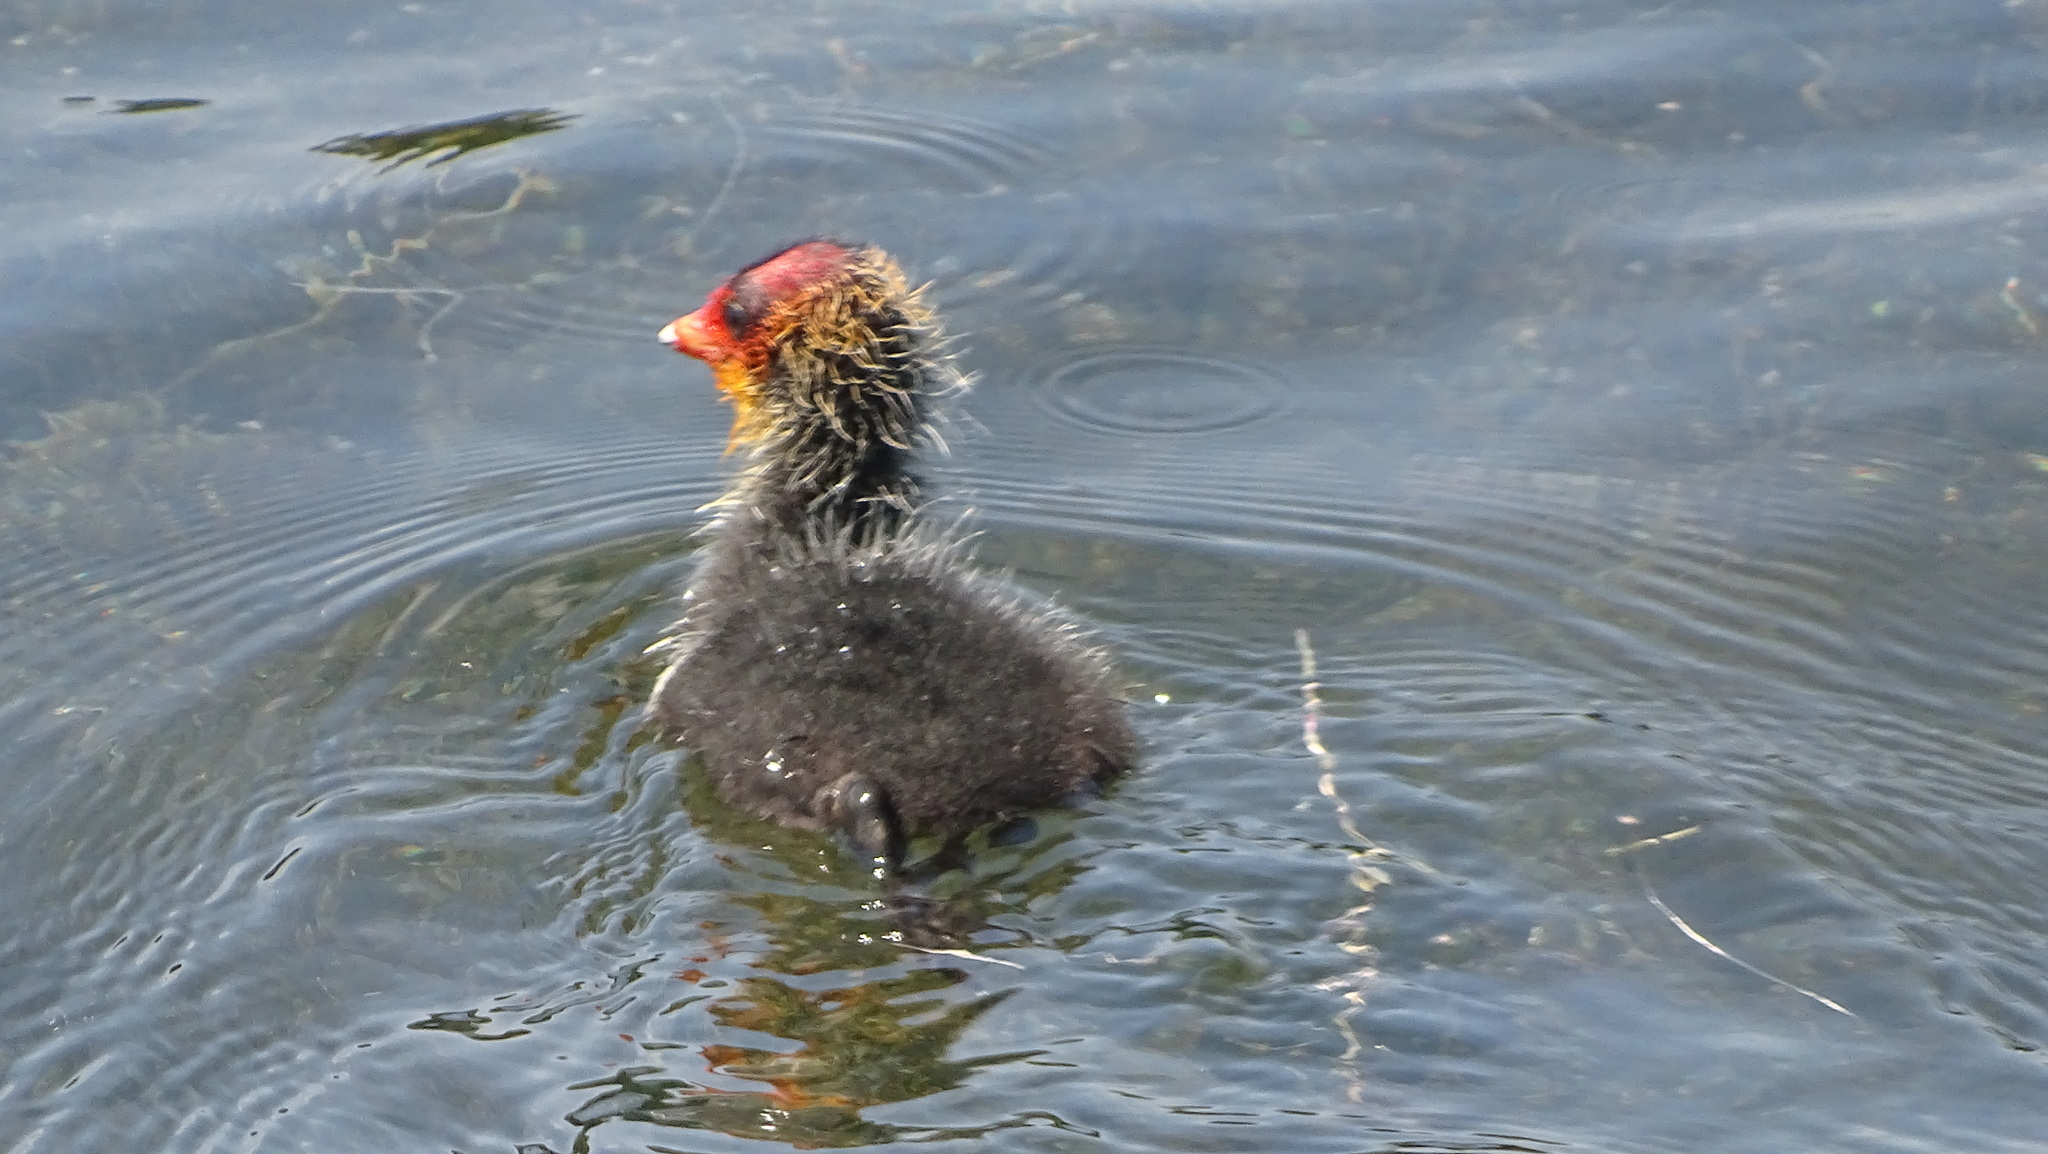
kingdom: Animalia
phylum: Chordata
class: Aves
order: Gruiformes
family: Rallidae
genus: Fulica
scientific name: Fulica atra
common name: Eurasian coot
